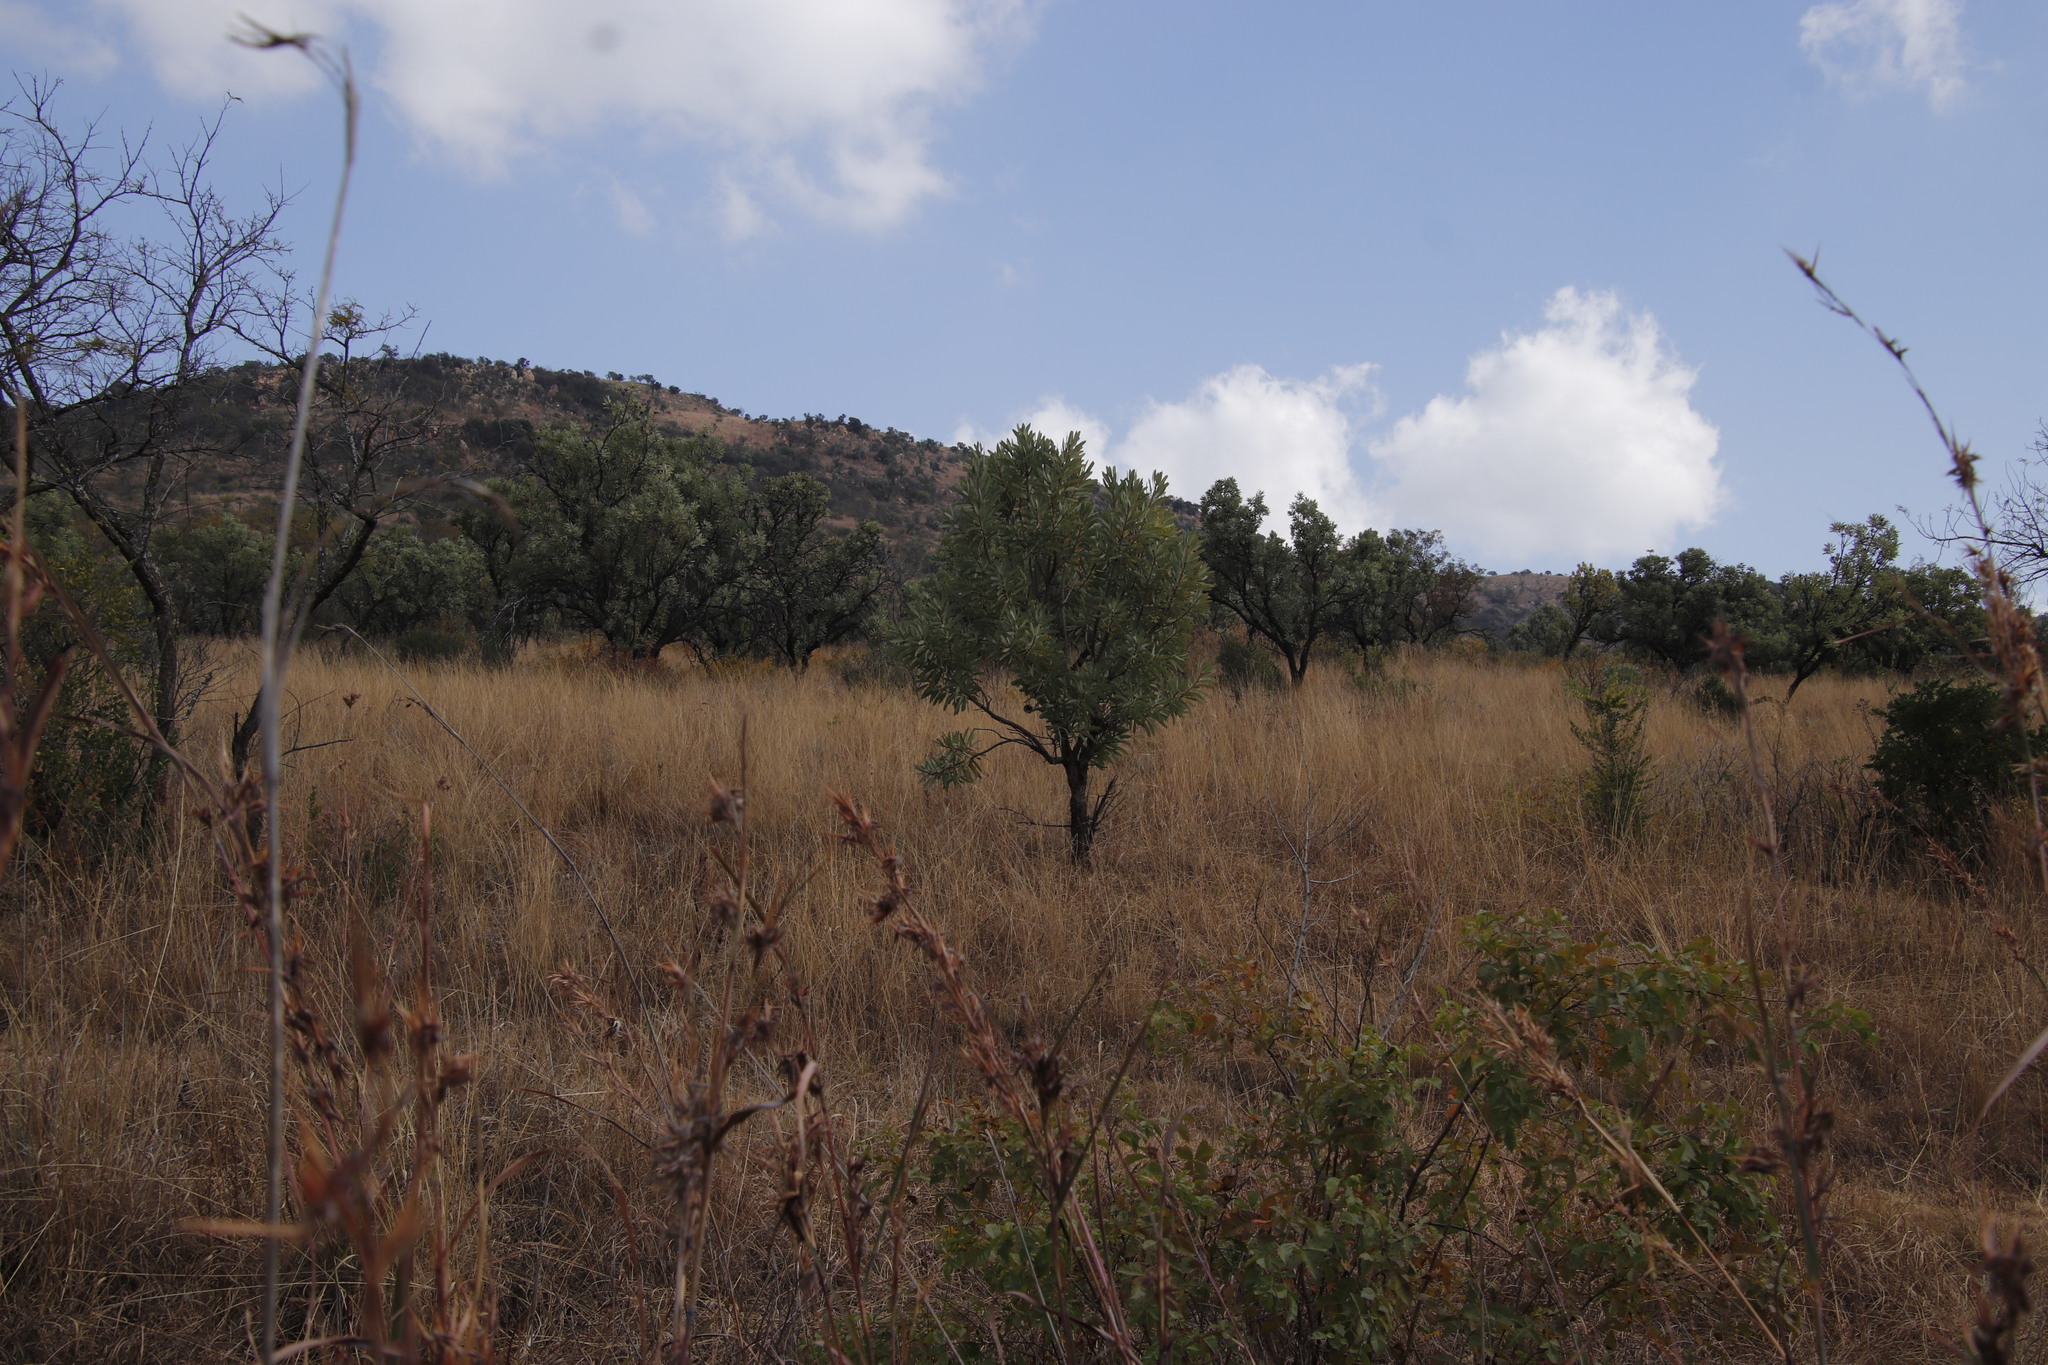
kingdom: Plantae
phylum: Tracheophyta
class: Magnoliopsida
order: Proteales
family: Proteaceae
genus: Protea
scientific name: Protea caffra
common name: Common sugarbush
